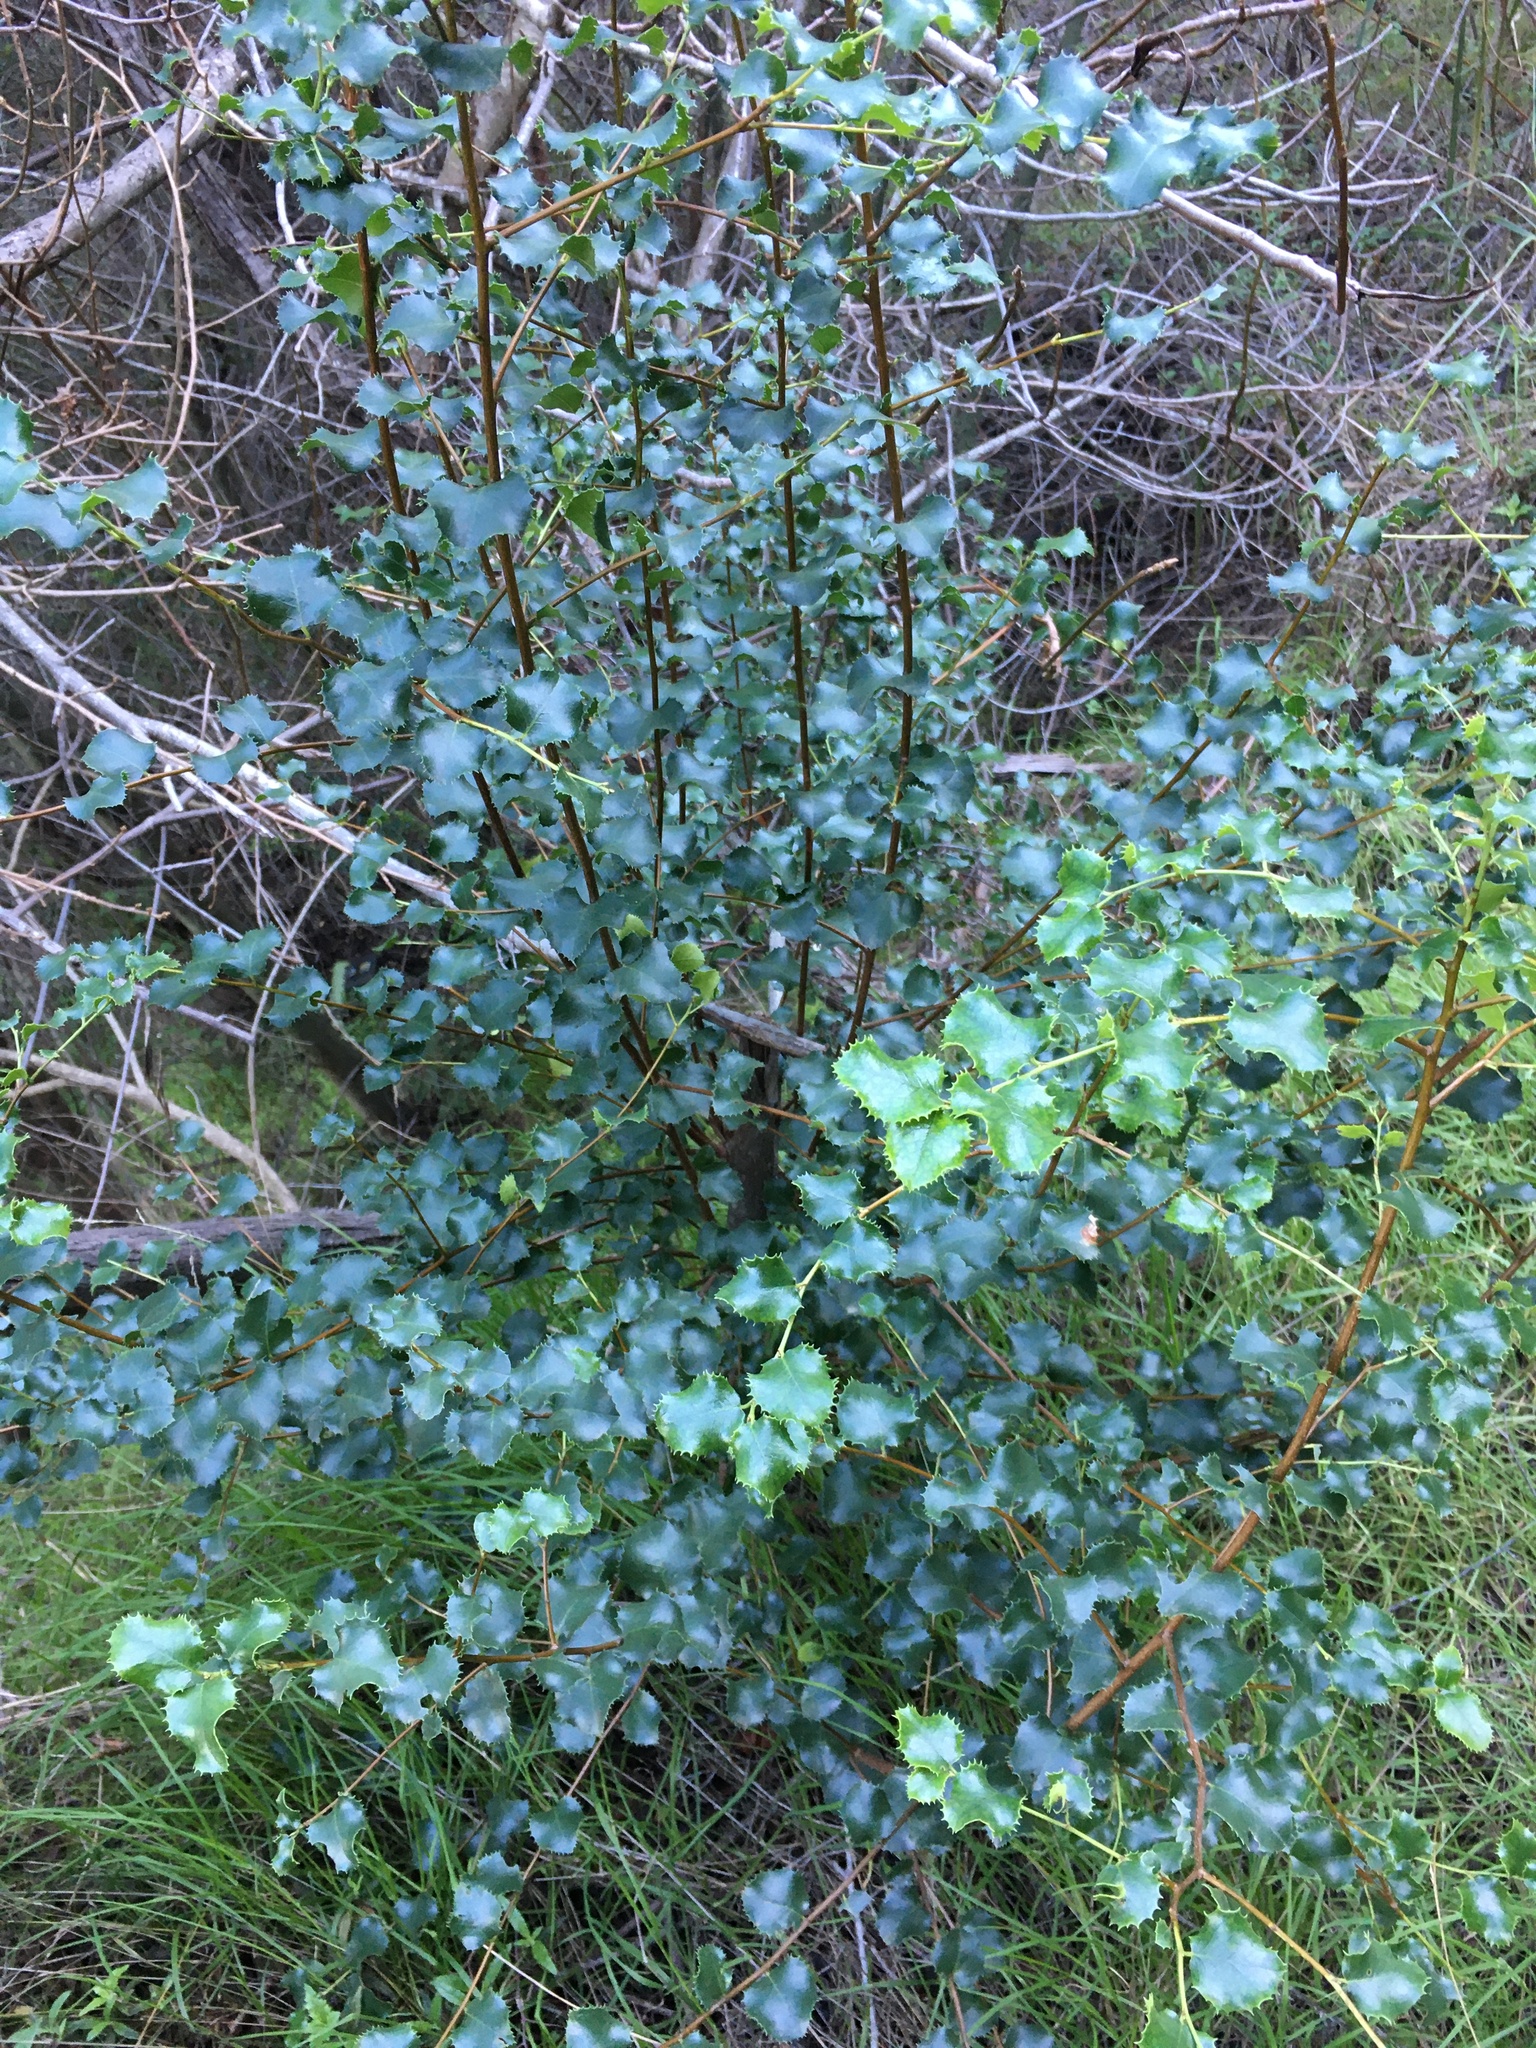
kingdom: Plantae
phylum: Tracheophyta
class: Magnoliopsida
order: Rosales
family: Rosaceae
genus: Prunus
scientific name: Prunus ilicifolia
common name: Hollyleaf cherry
